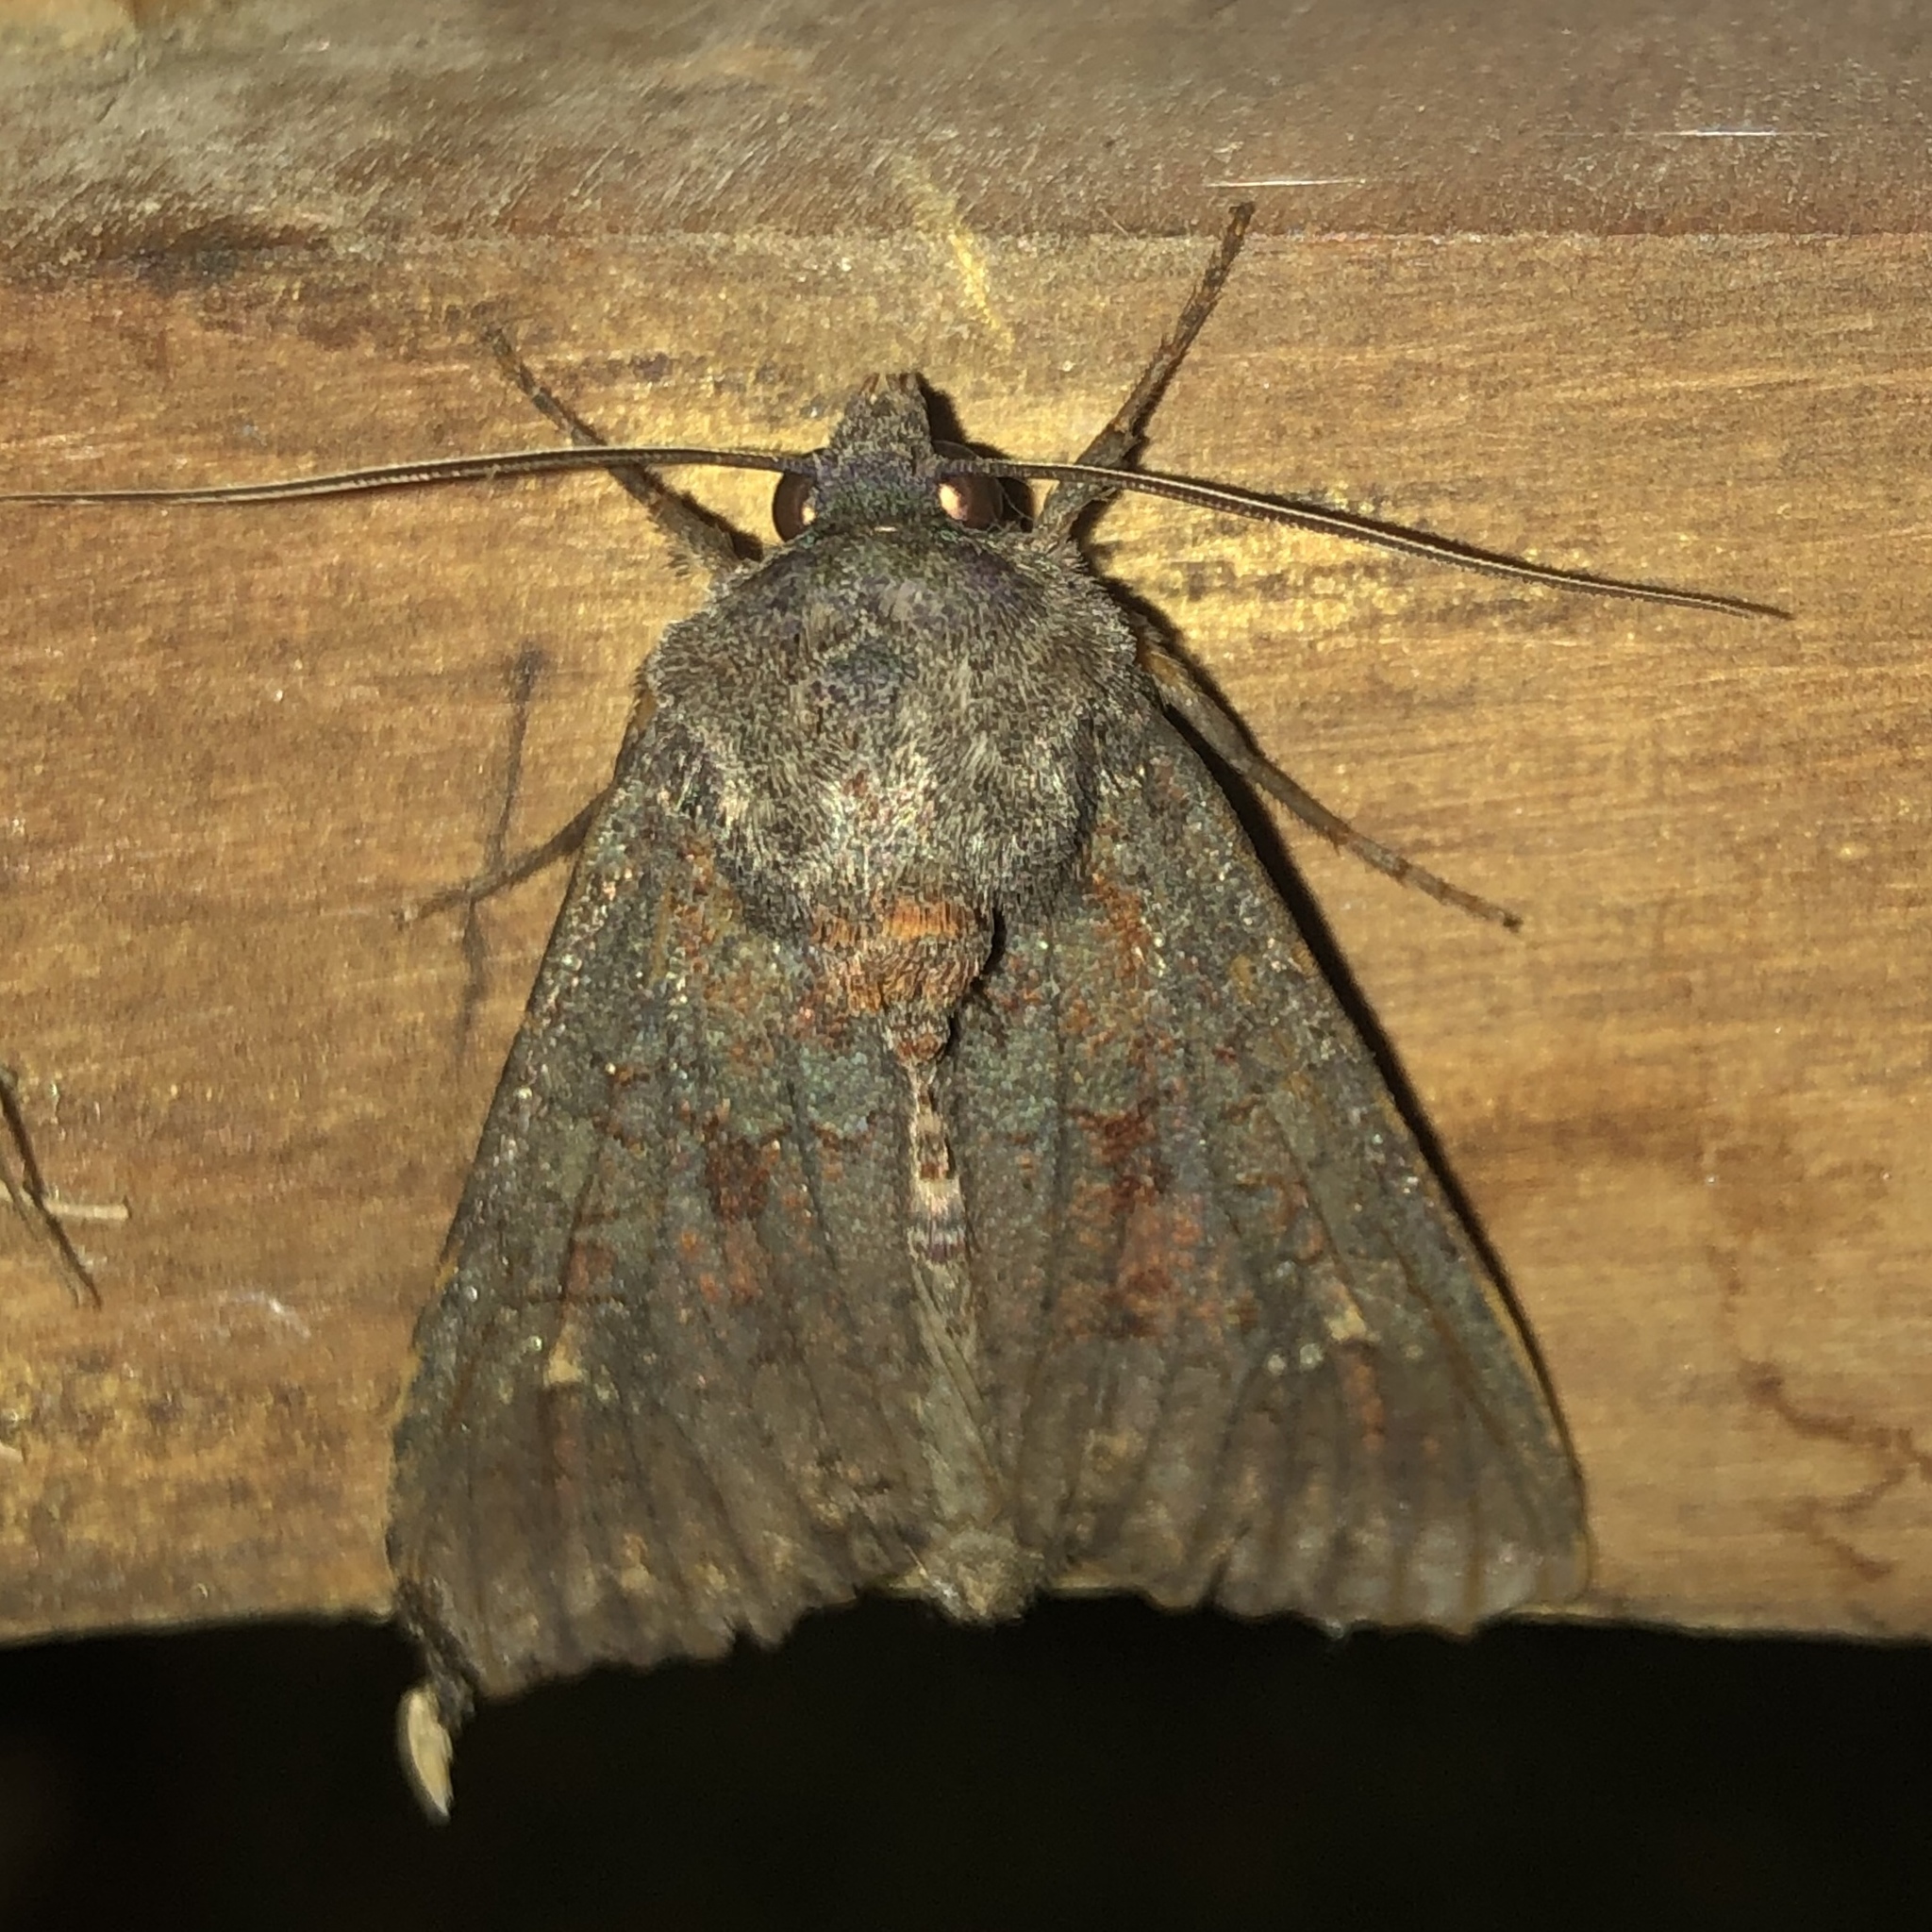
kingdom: Animalia
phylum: Arthropoda
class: Insecta
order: Lepidoptera
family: Noctuidae
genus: Apamea
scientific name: Apamea amputatrix
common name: Yellow-headed cutworm moth
